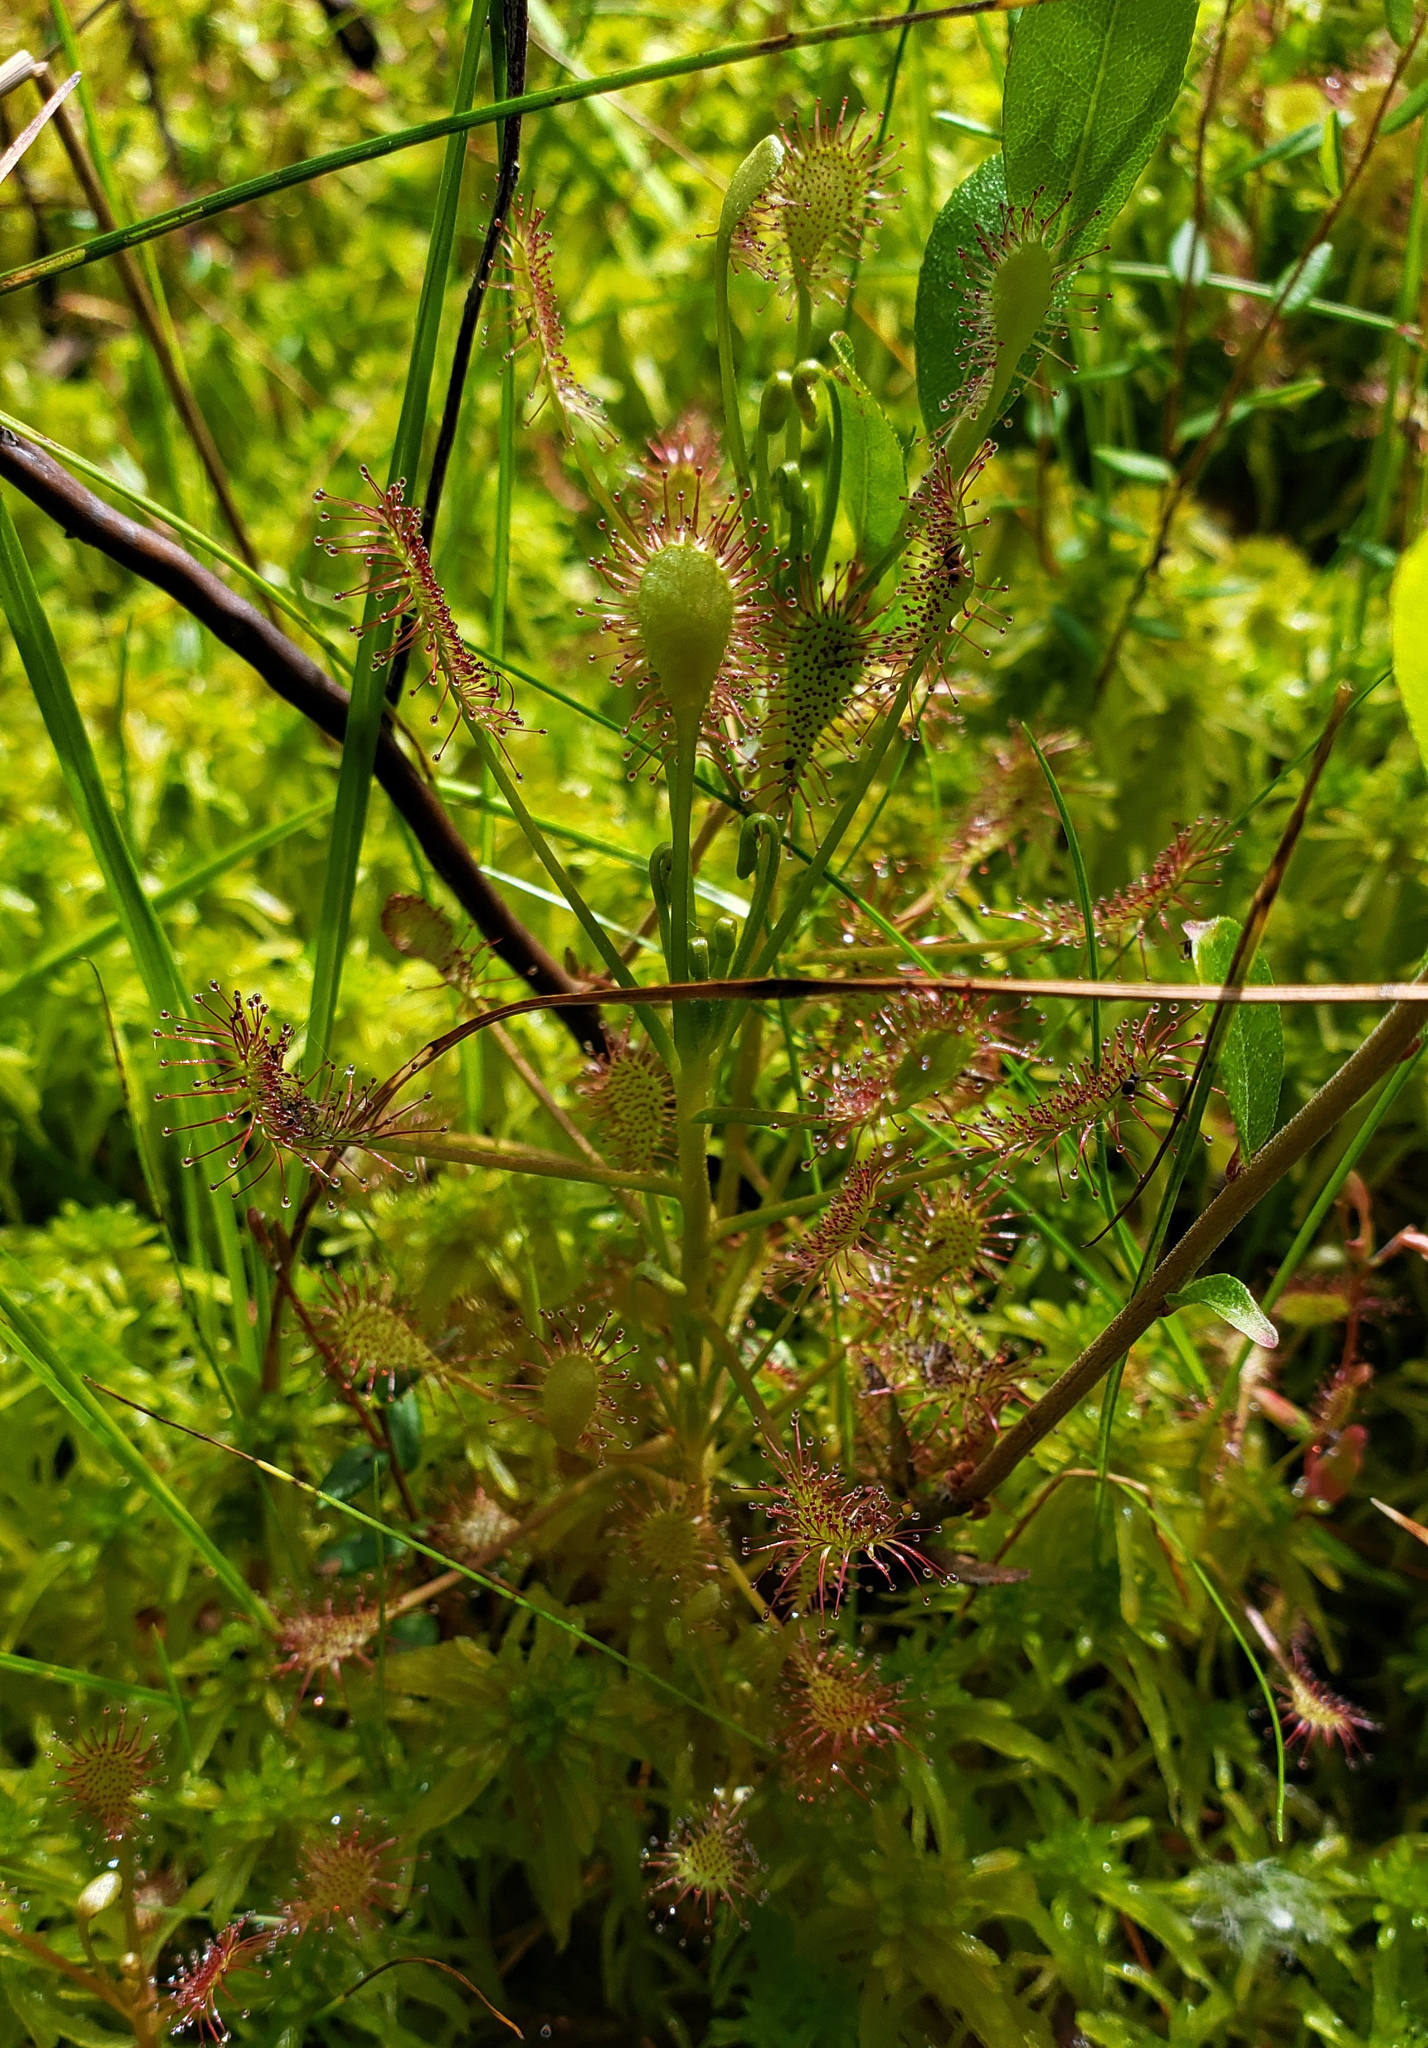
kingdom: Plantae
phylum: Tracheophyta
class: Magnoliopsida
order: Caryophyllales
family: Droseraceae
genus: Drosera
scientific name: Drosera intermedia
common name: Oblong-leaved sundew
